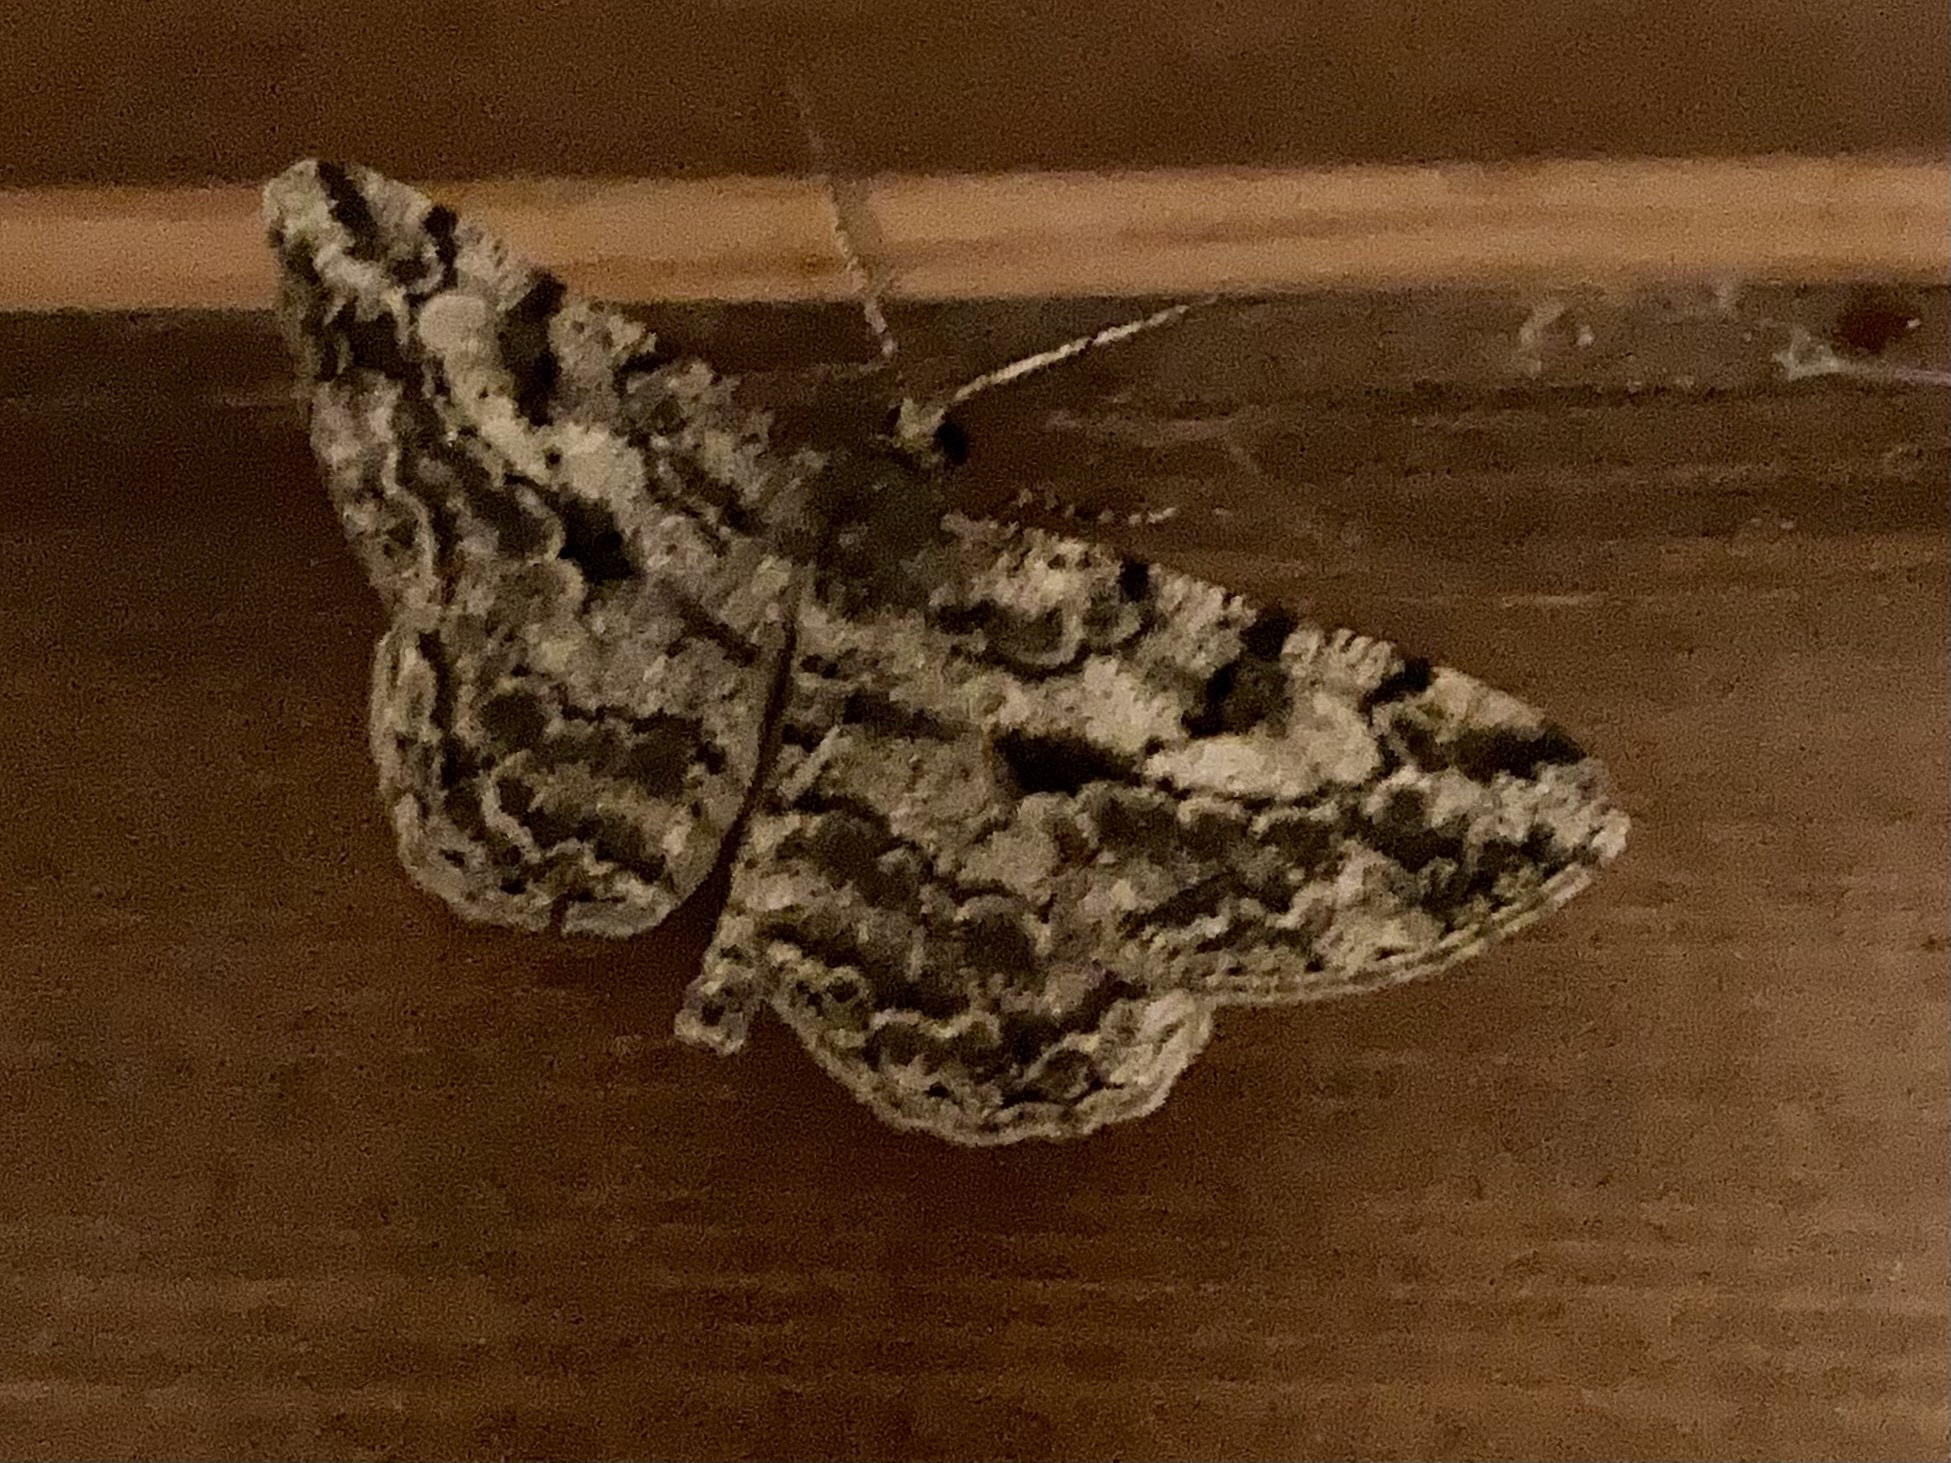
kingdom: Animalia
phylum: Arthropoda
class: Insecta
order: Lepidoptera
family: Geometridae
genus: Peribatodes
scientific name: Peribatodes rhomboidaria
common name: Willow beauty
